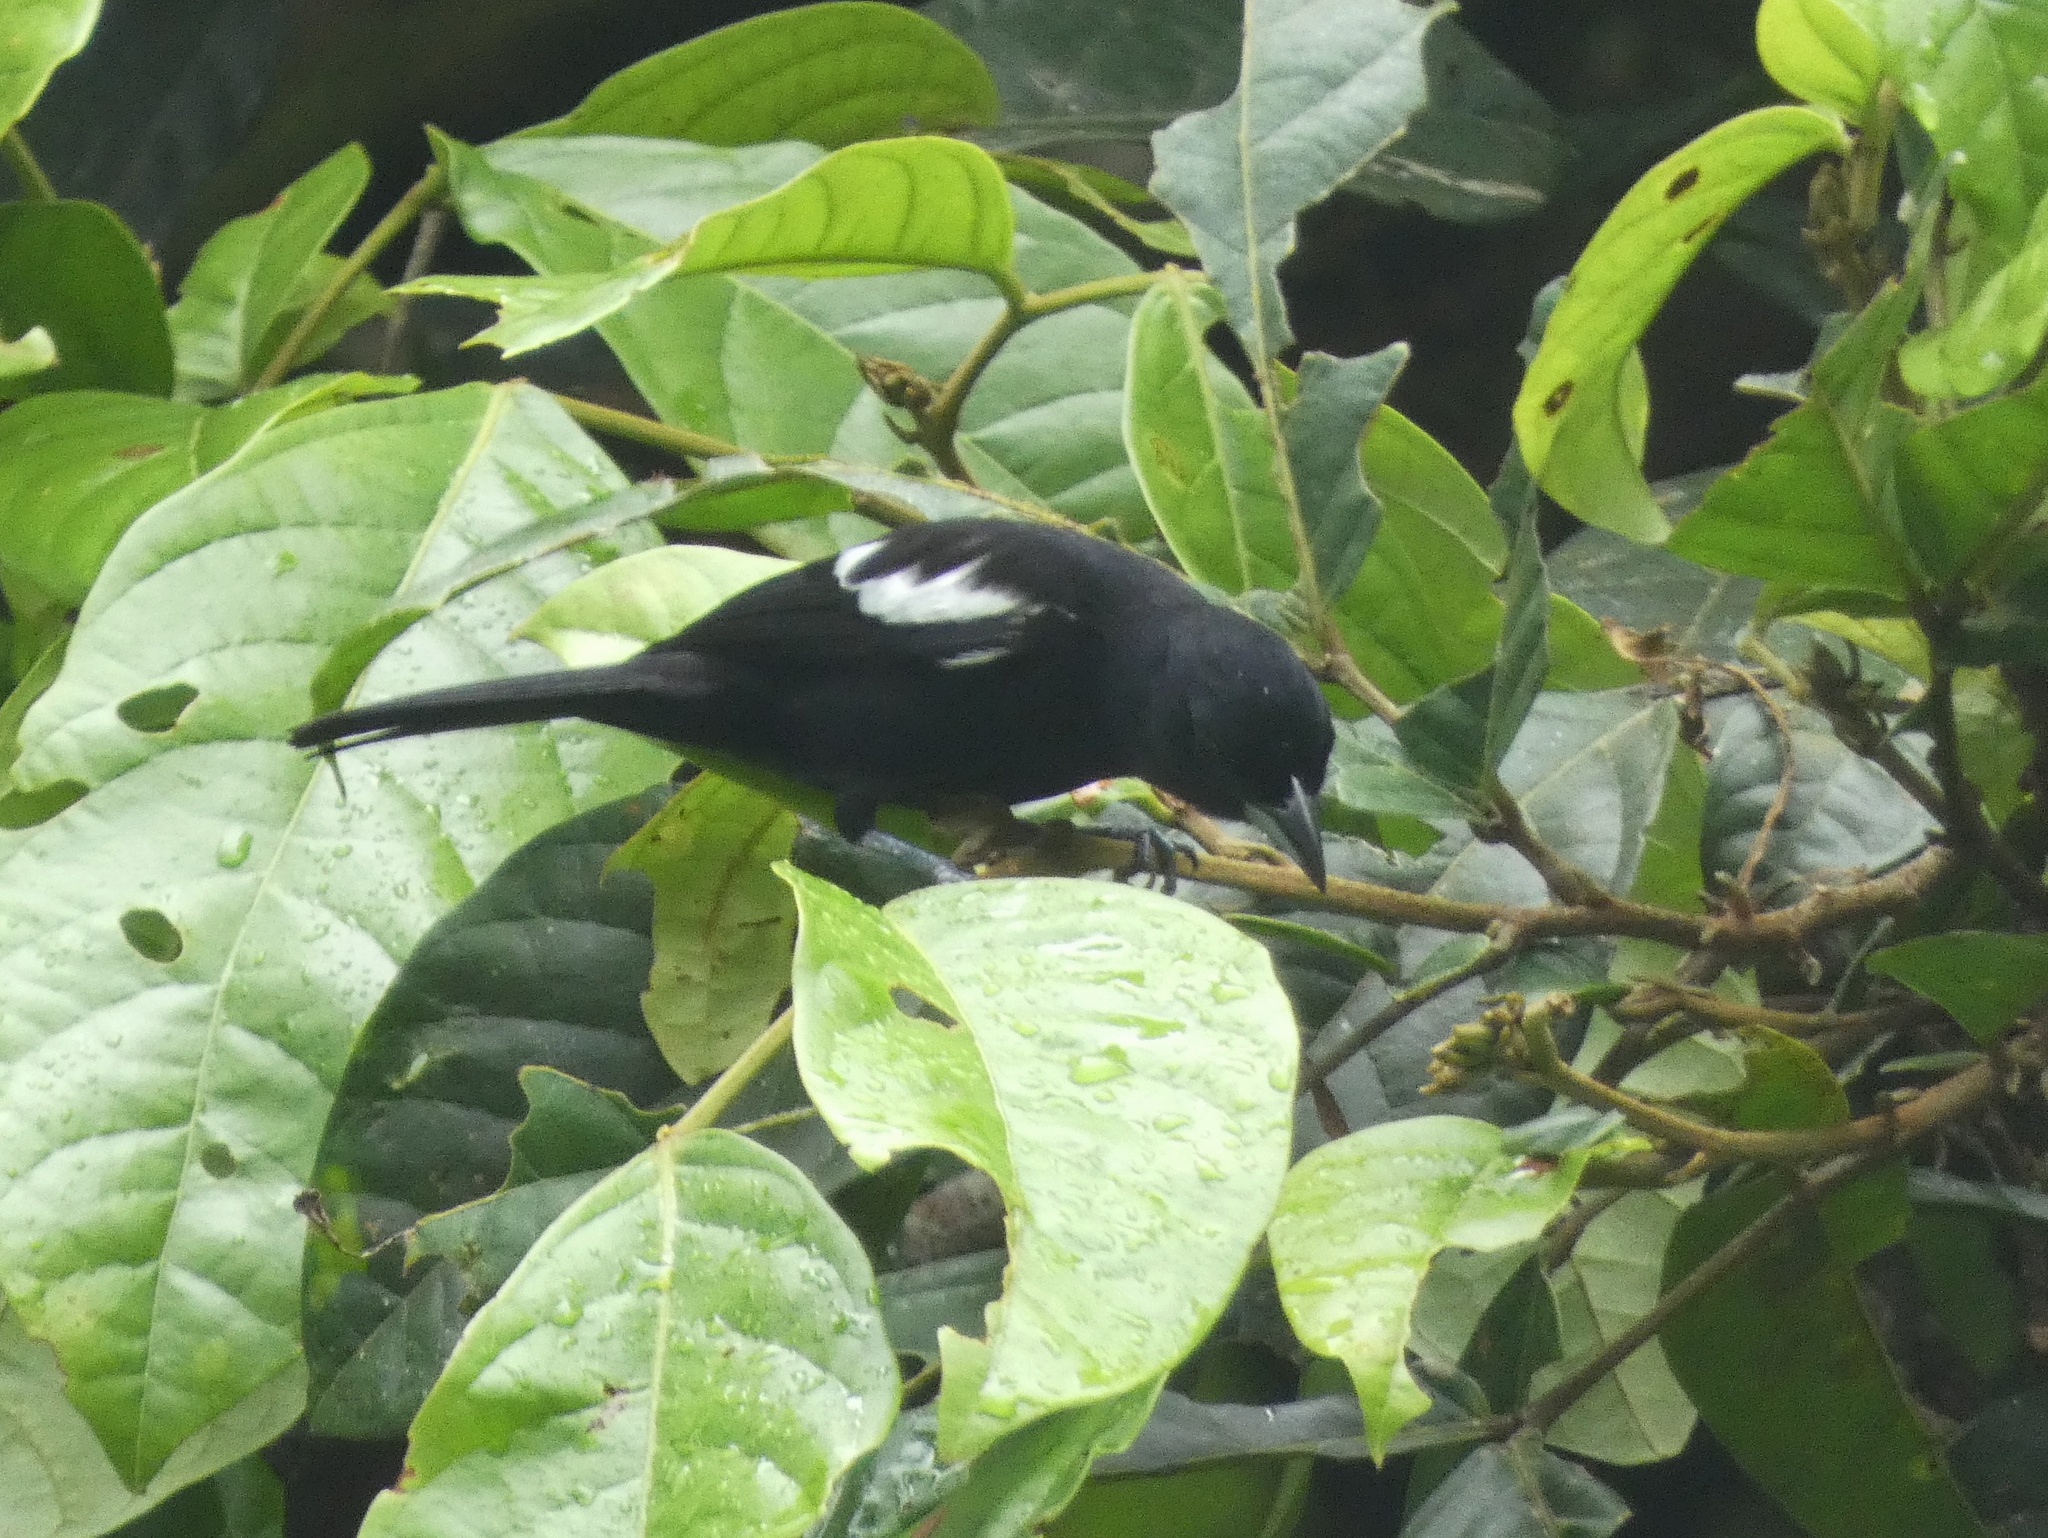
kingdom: Animalia
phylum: Chordata
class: Aves
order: Passeriformes
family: Thraupidae
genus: Loriotus
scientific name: Loriotus luctuosus
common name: White-shouldered tanager
